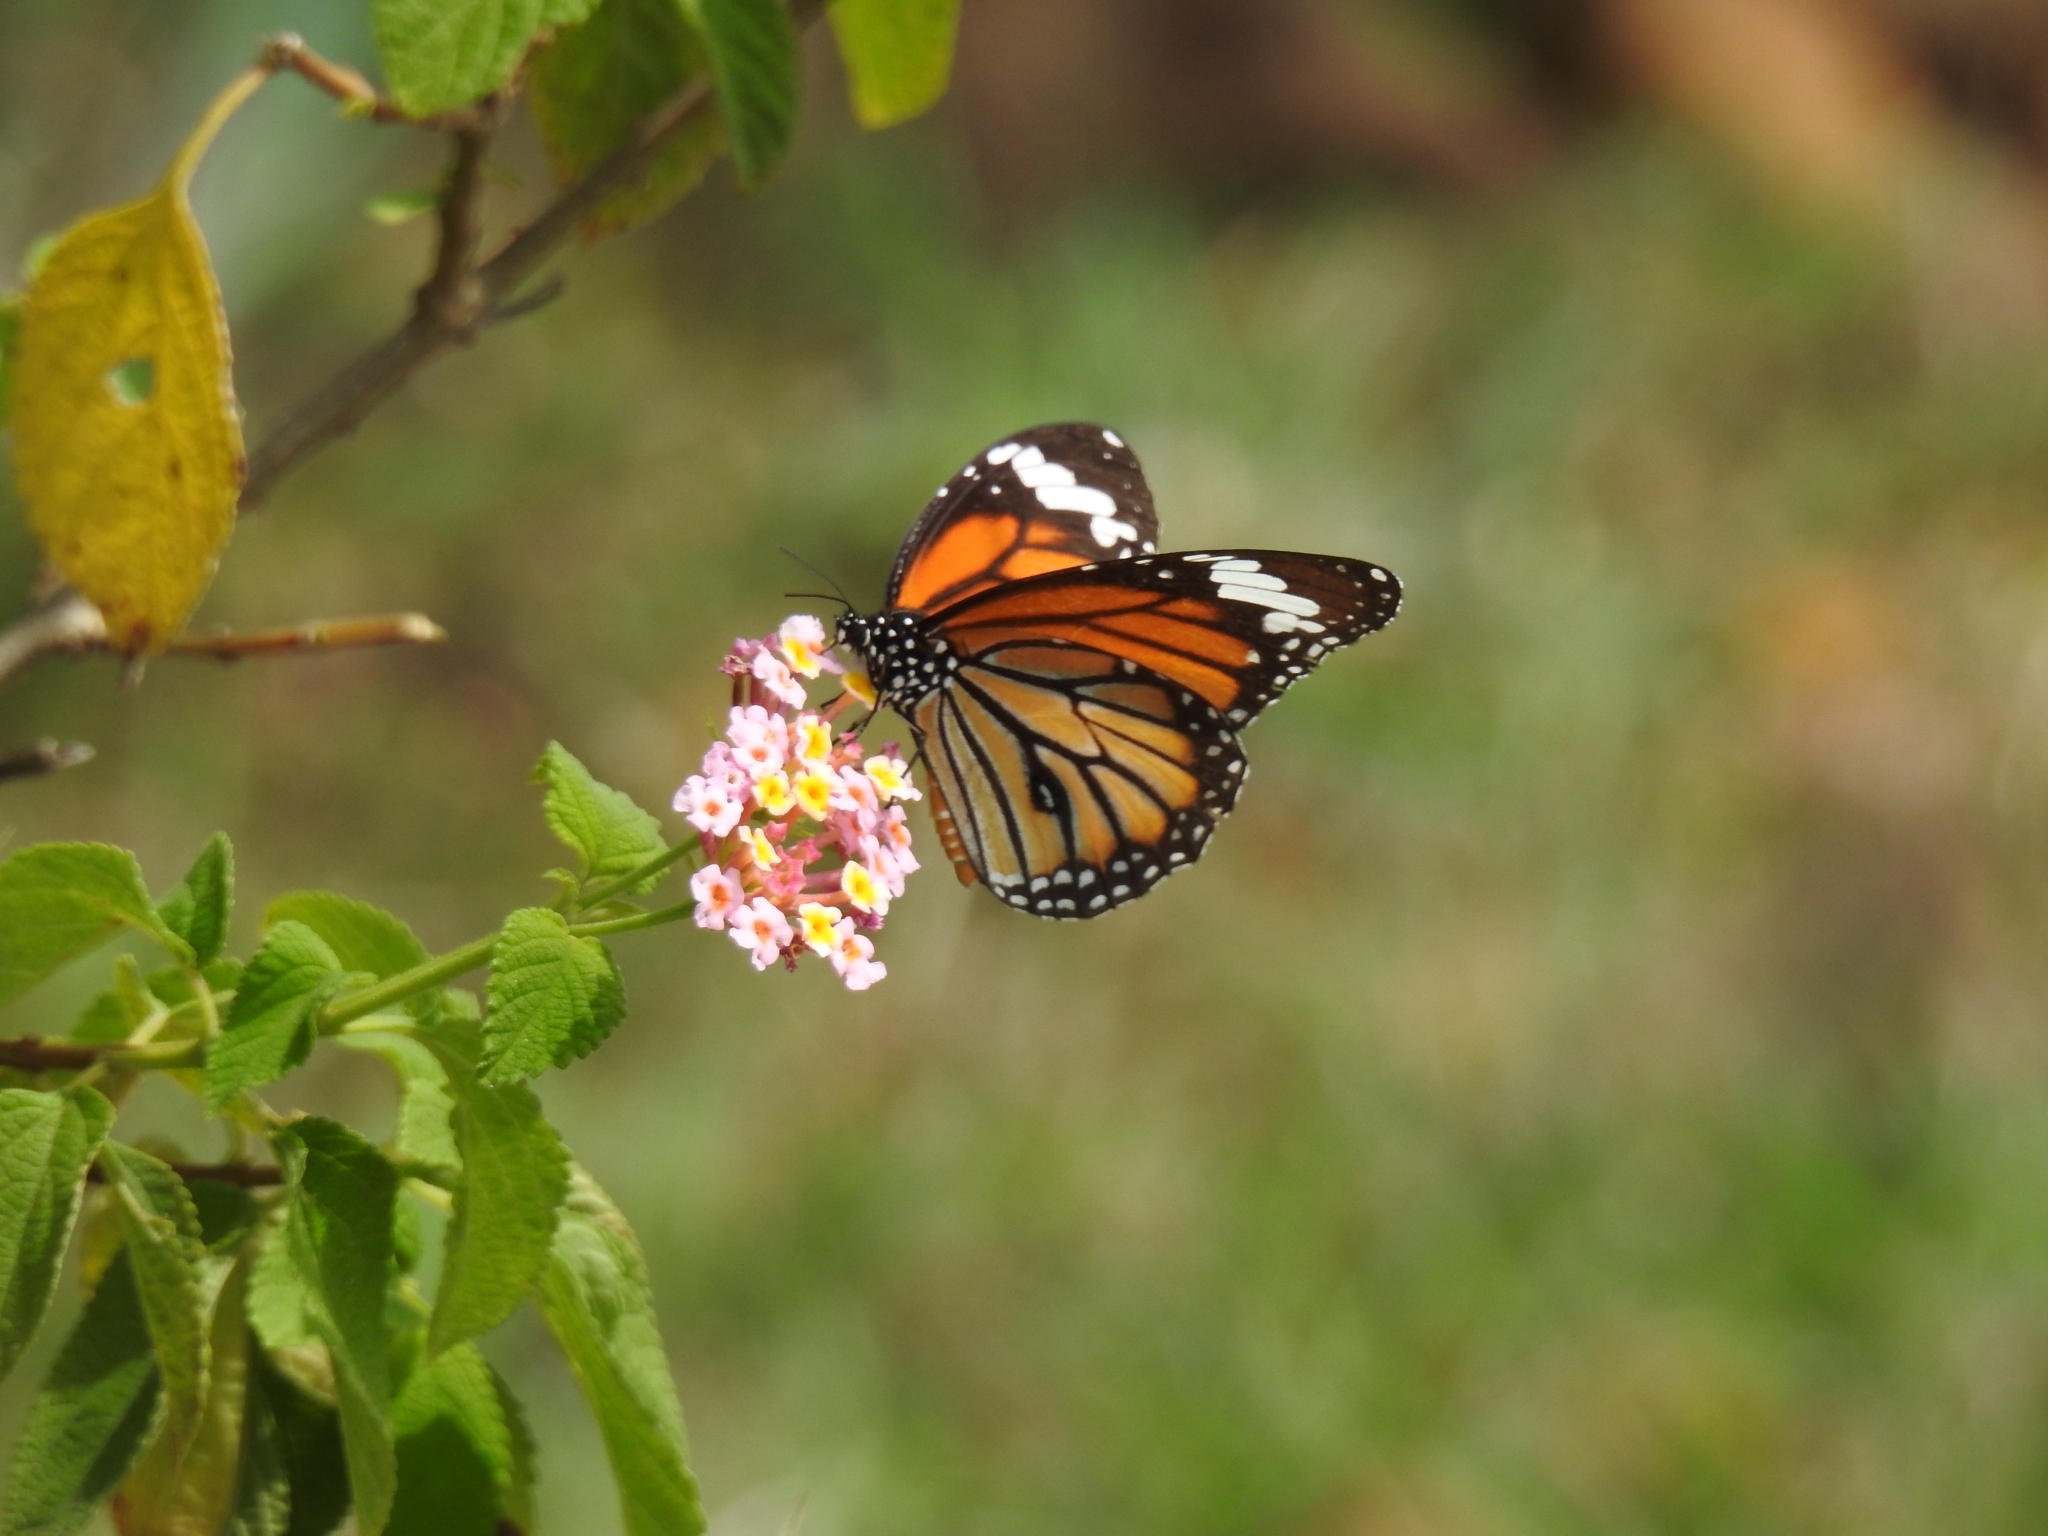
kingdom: Animalia
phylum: Arthropoda
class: Insecta
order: Lepidoptera
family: Nymphalidae
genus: Danaus
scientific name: Danaus genutia
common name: Common tiger butterfly
